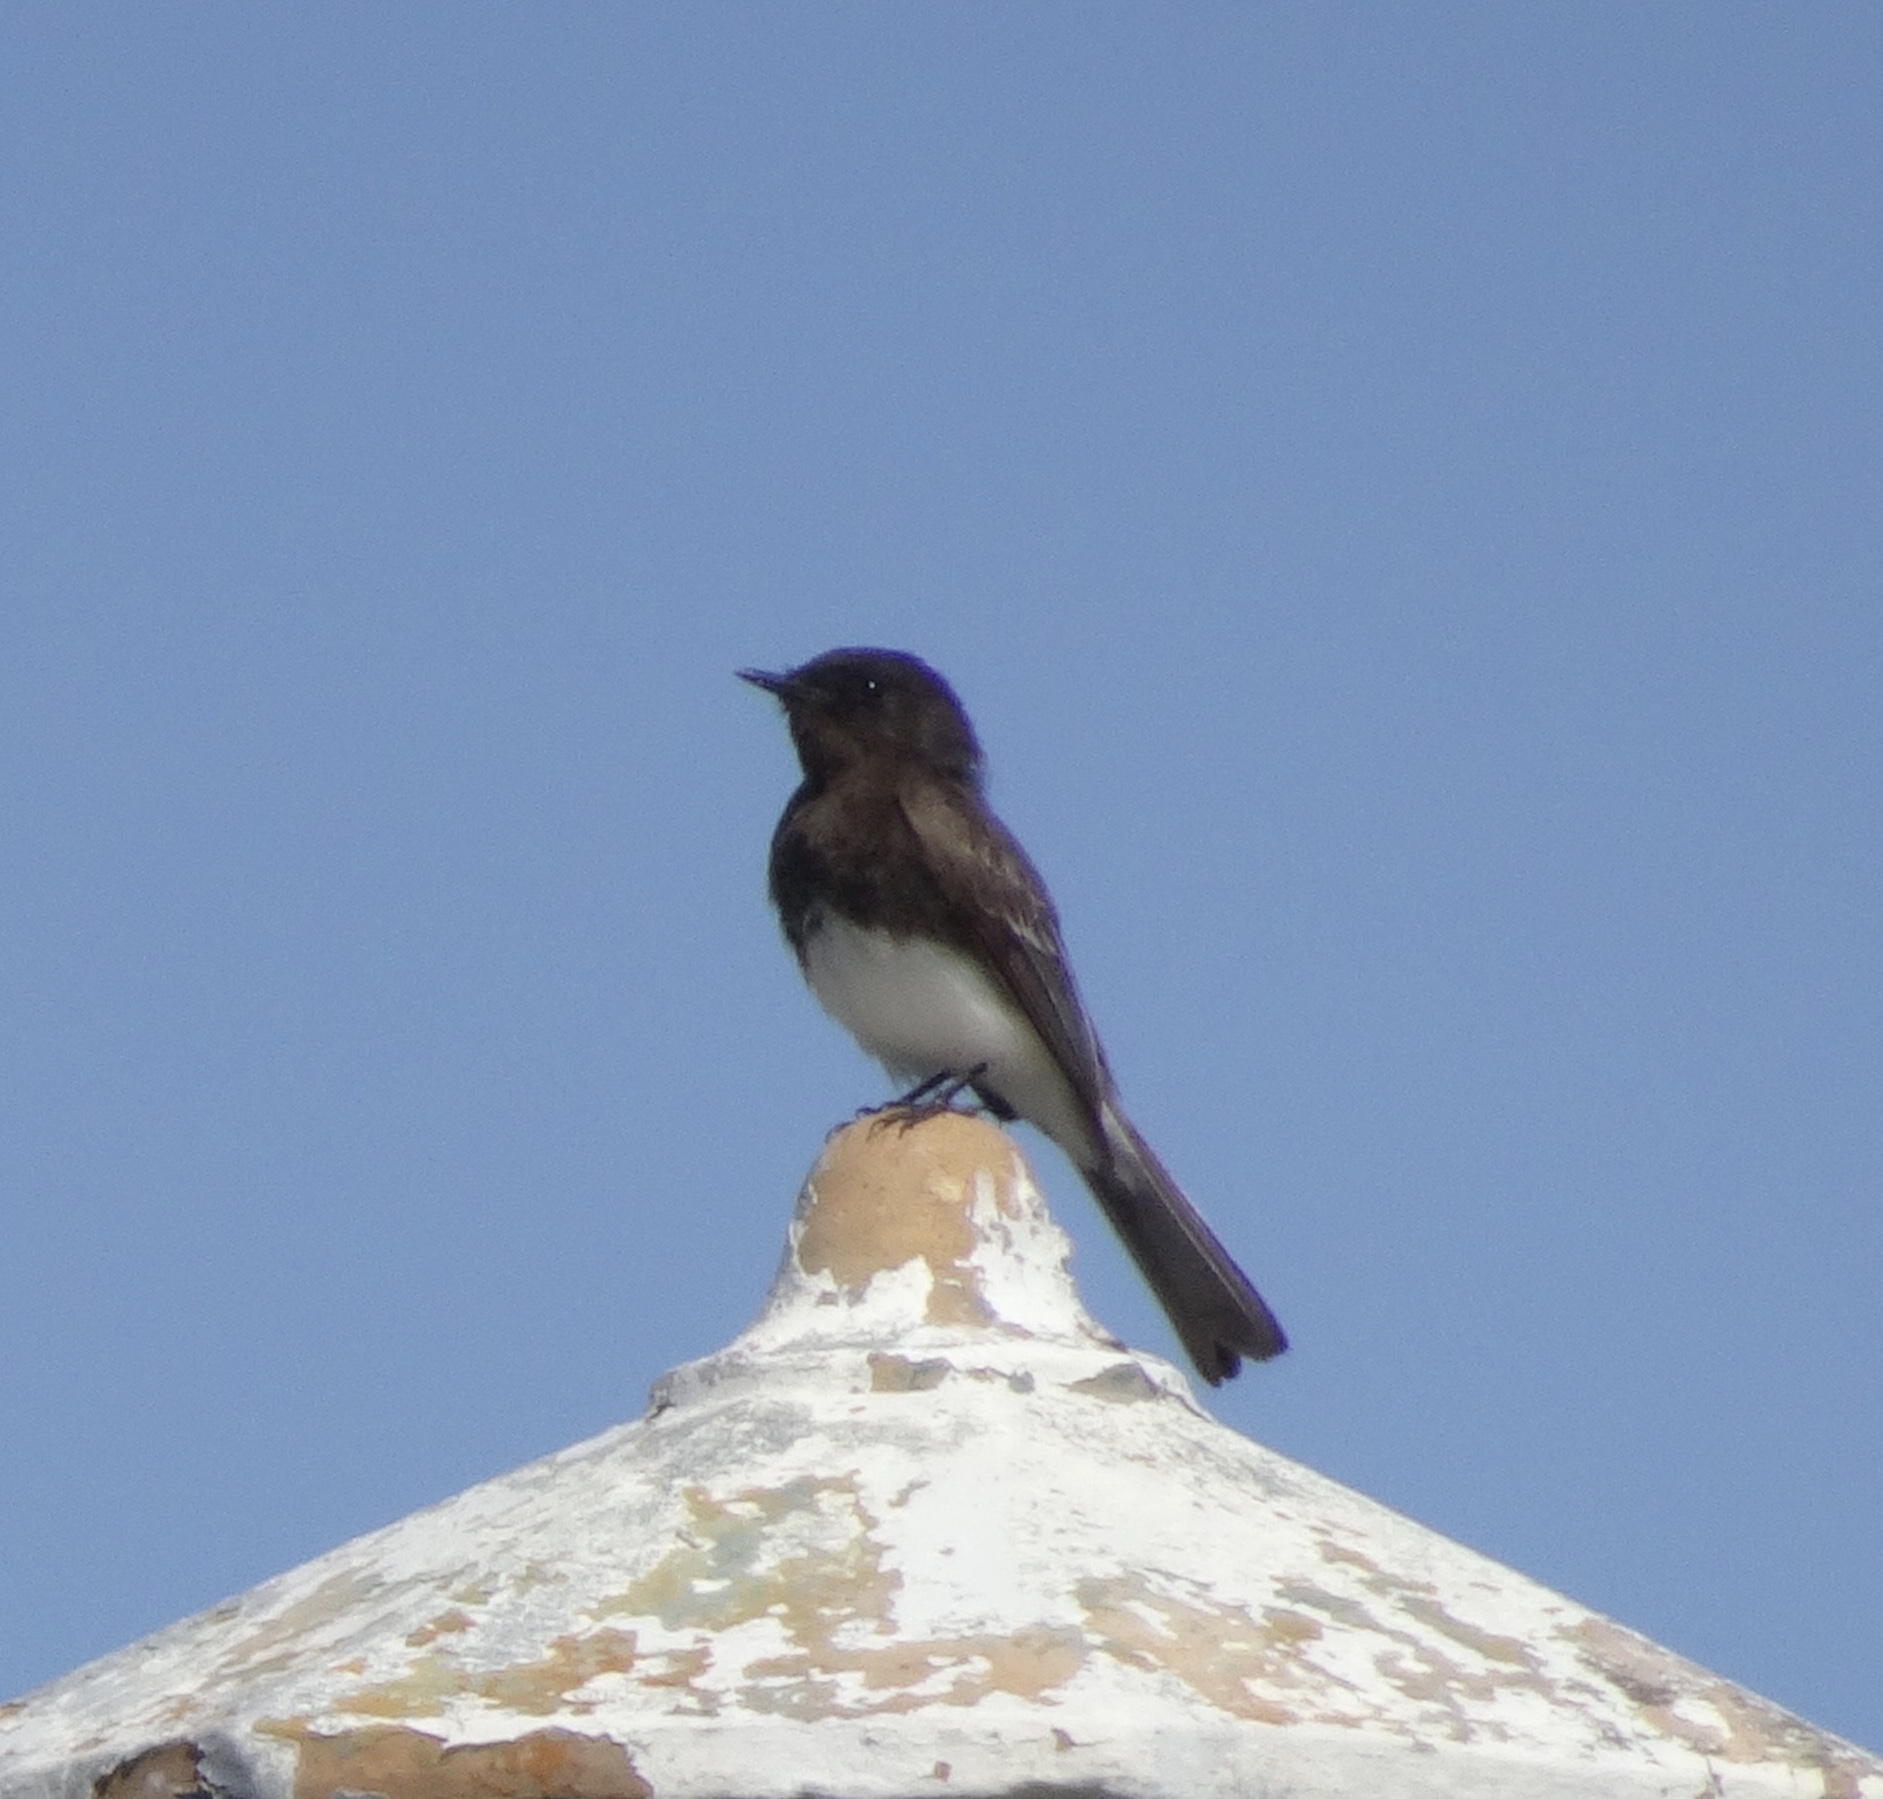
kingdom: Animalia
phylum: Chordata
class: Aves
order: Passeriformes
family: Tyrannidae
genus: Sayornis
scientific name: Sayornis nigricans
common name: Black phoebe
